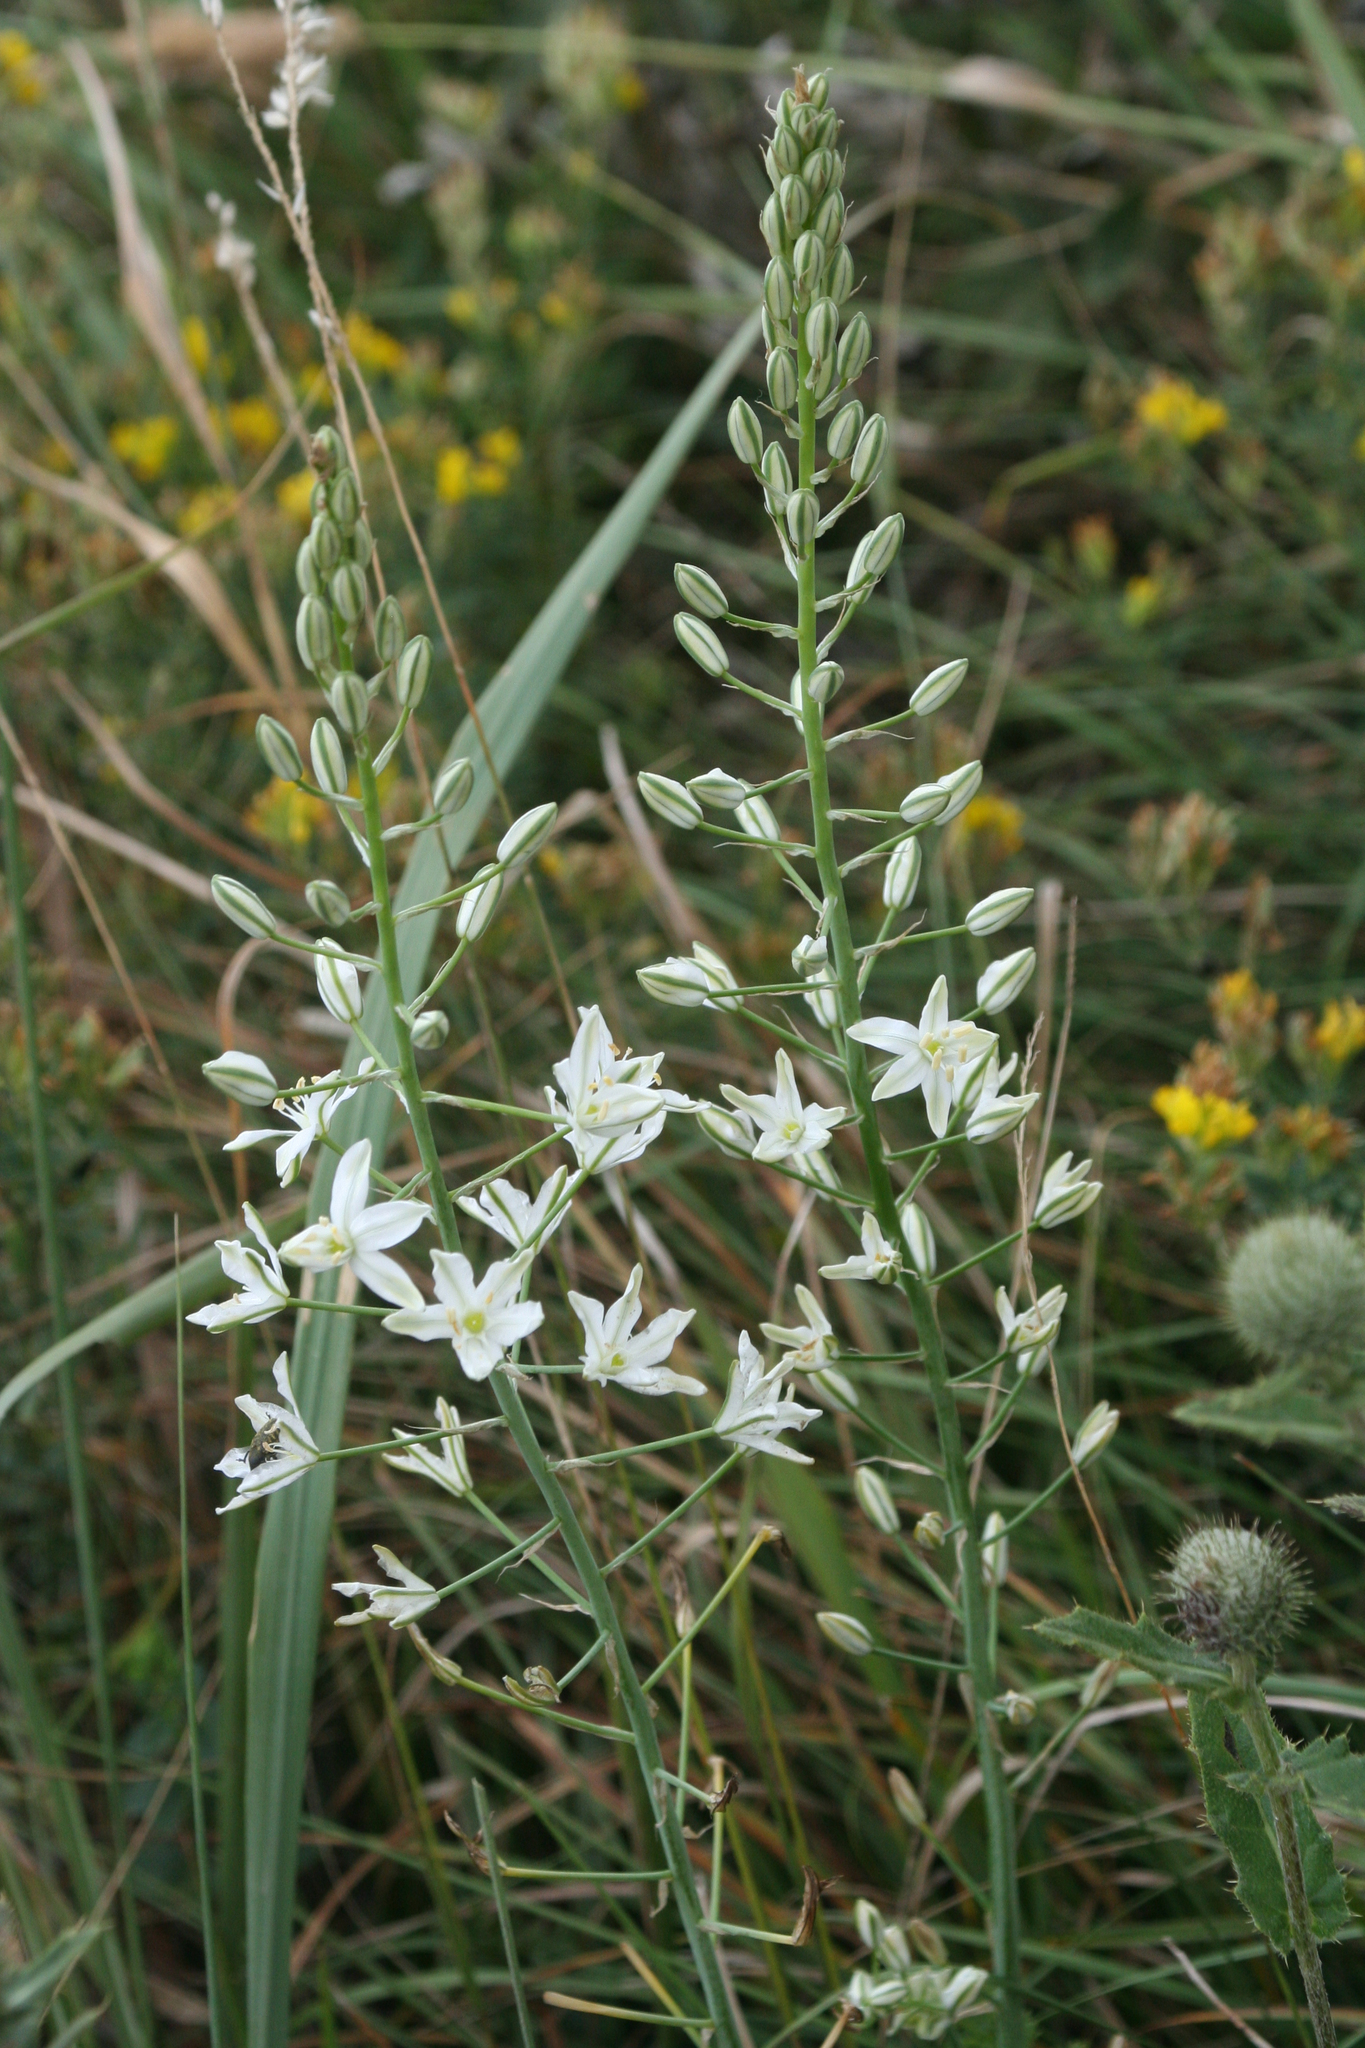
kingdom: Plantae
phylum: Tracheophyta
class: Liliopsida
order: Asparagales
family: Asparagaceae
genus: Ornithogalum
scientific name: Ornithogalum ponticum
